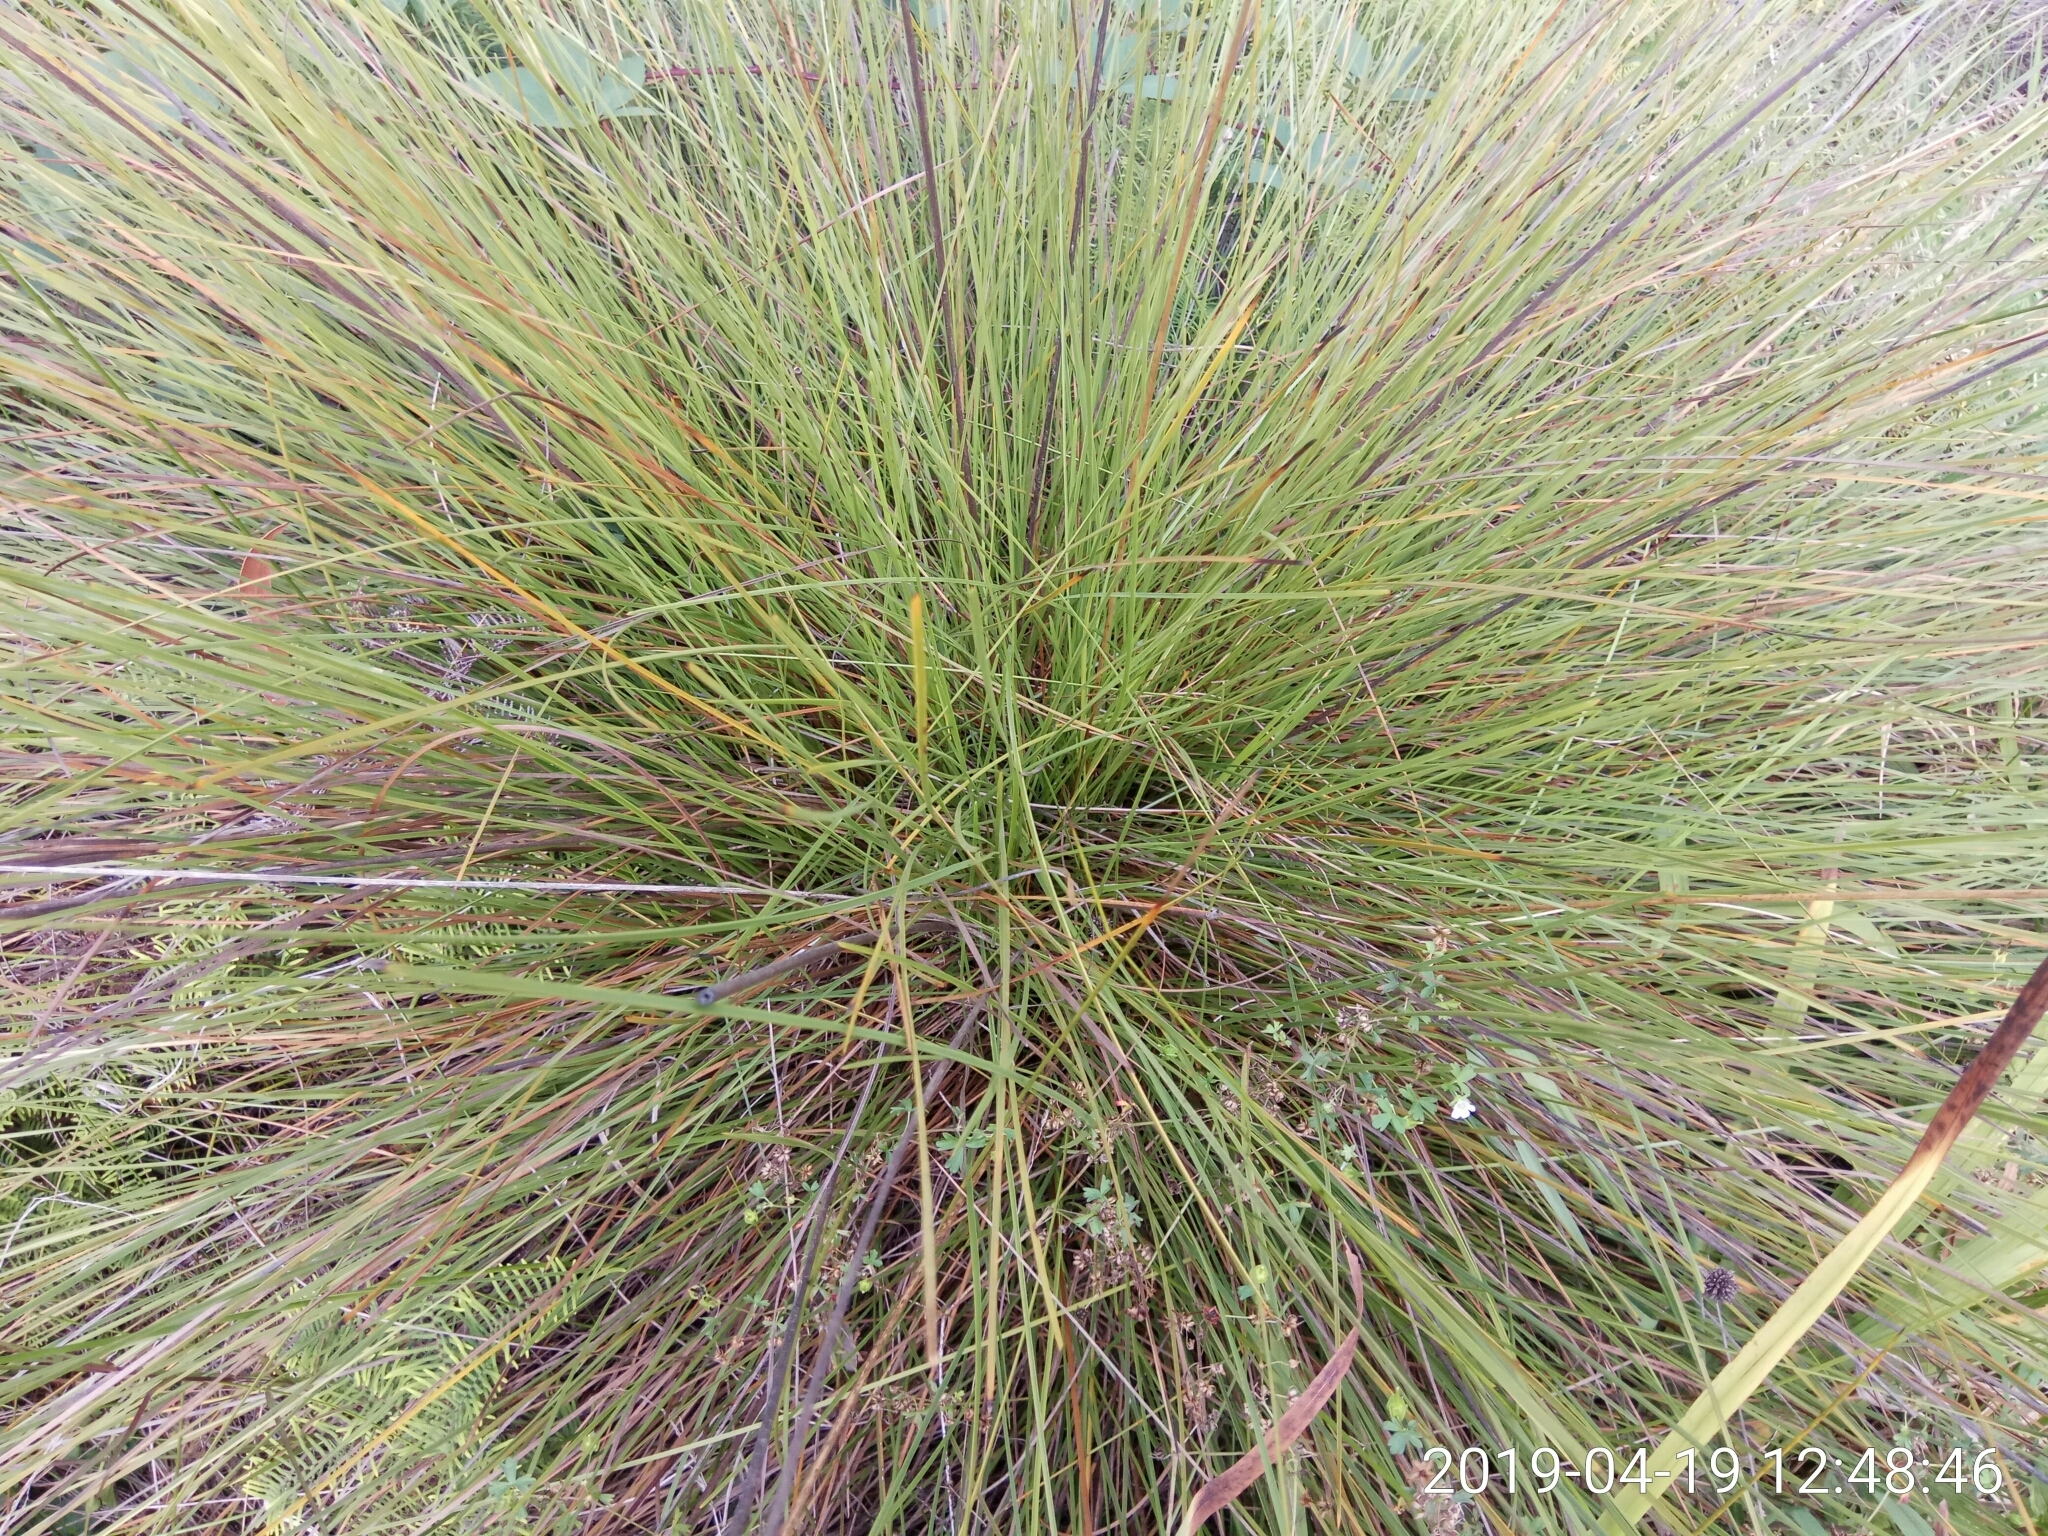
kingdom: Plantae
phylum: Tracheophyta
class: Liliopsida
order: Poales
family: Cyperaceae
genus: Gymnoschoenus
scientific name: Gymnoschoenus sphaerocephalus
